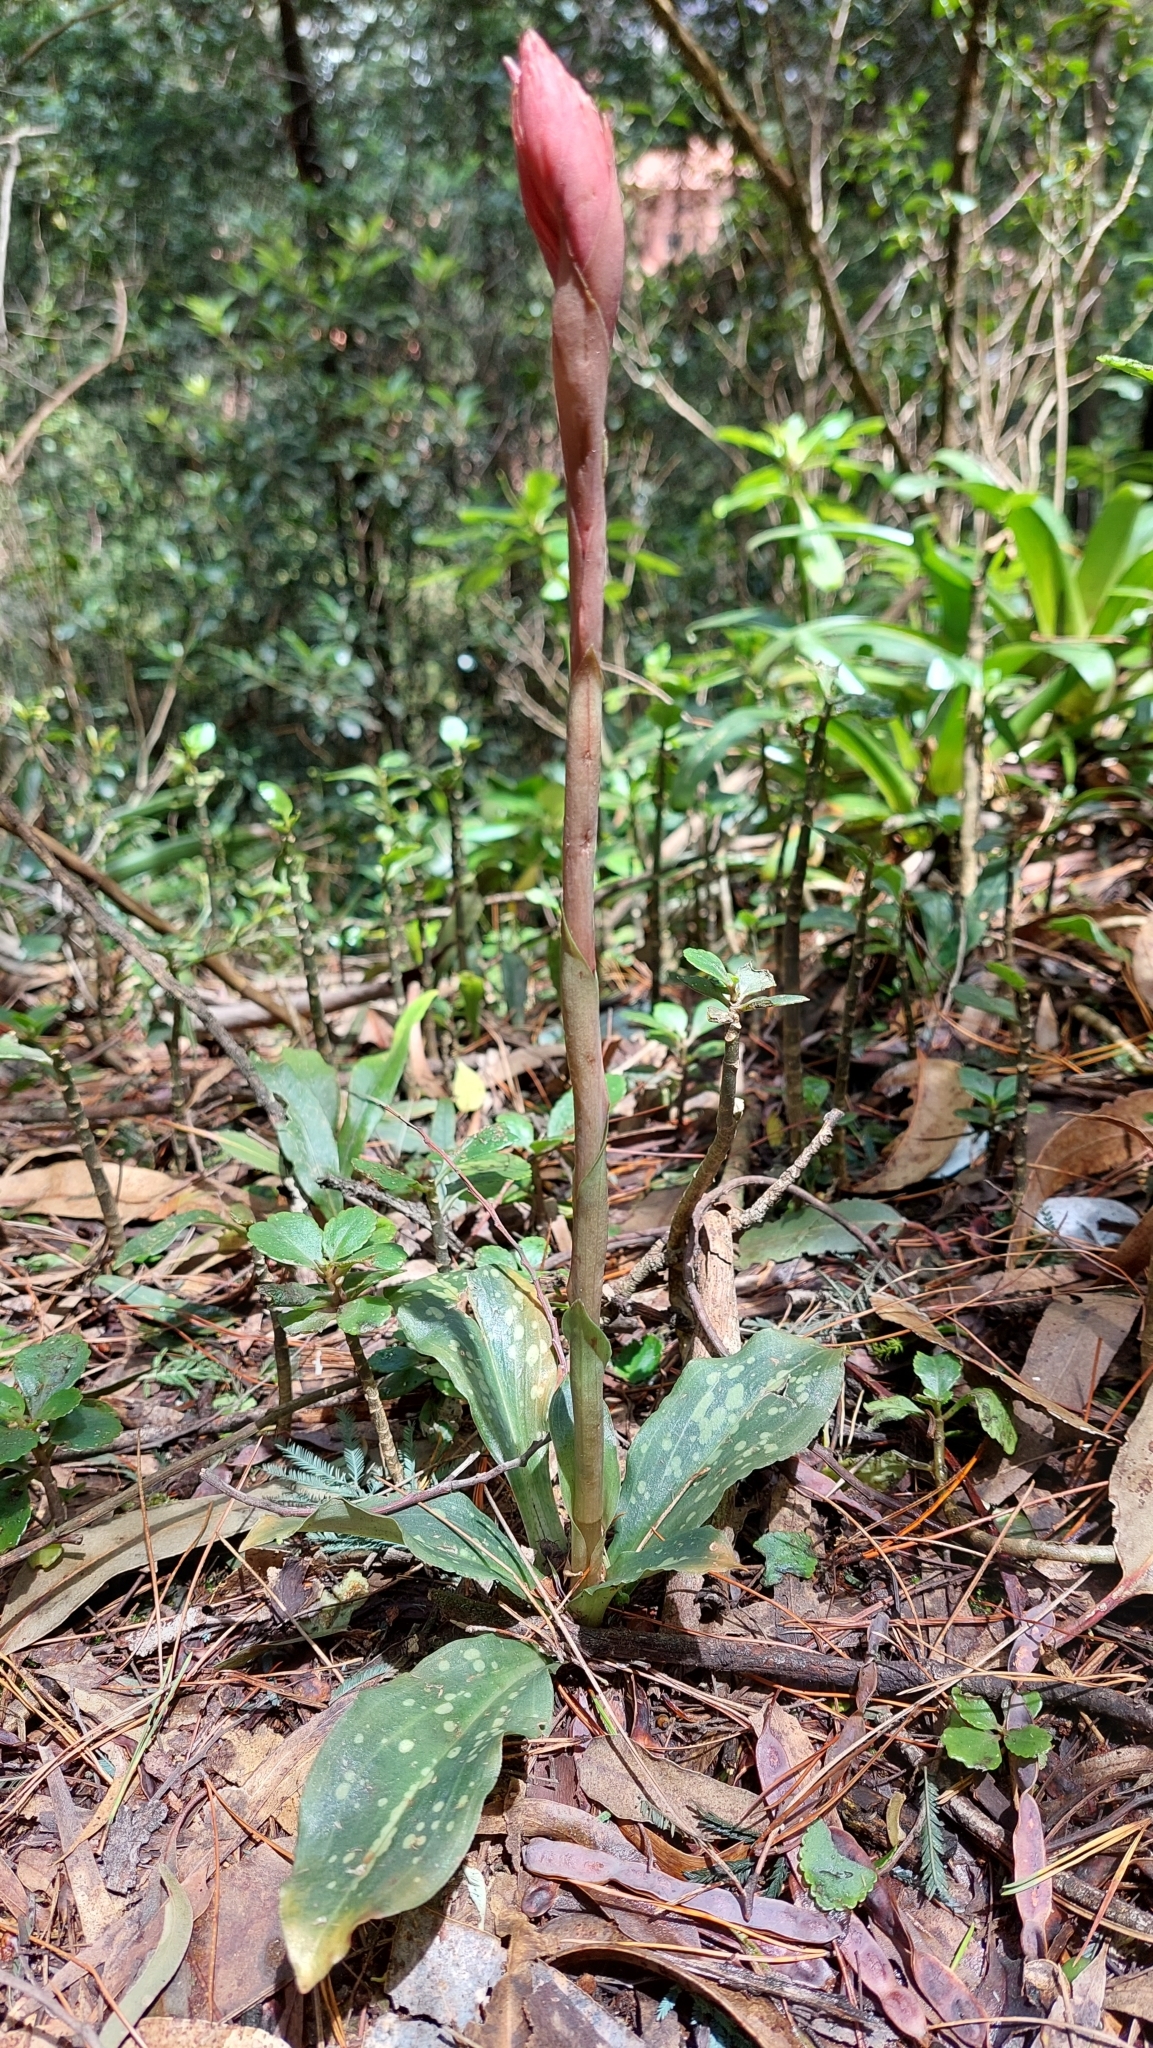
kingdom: Plantae
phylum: Tracheophyta
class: Liliopsida
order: Asparagales
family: Orchidaceae
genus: Stenorrhynchos
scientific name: Stenorrhynchos albidomaculatum
